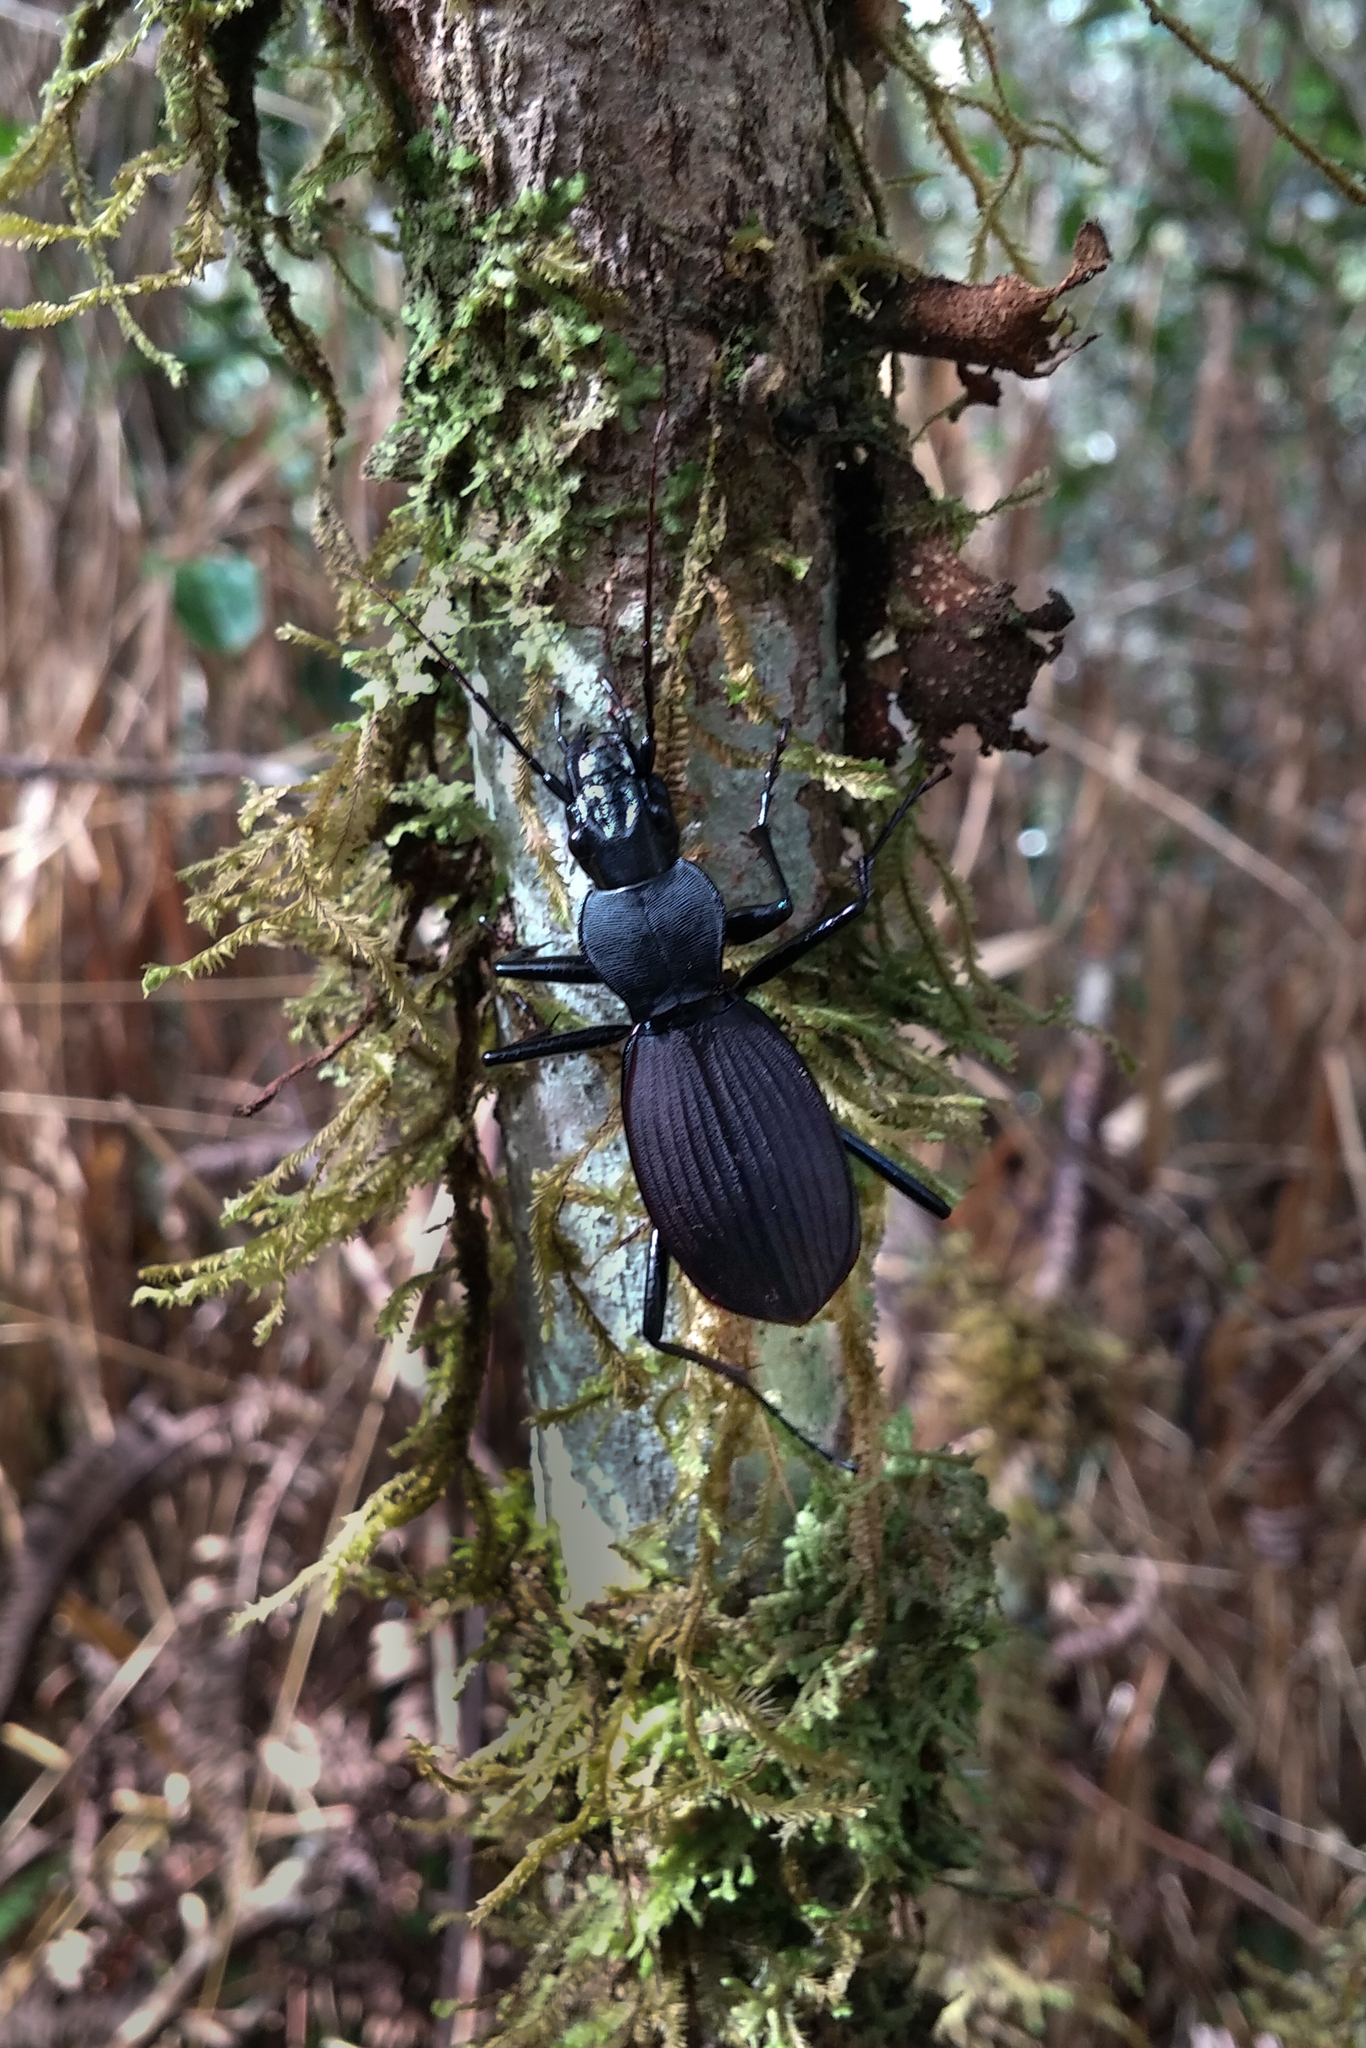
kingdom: Animalia
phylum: Arthropoda
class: Insecta
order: Coleoptera
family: Carabidae
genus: Eudromus
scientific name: Eudromus striaticollis
